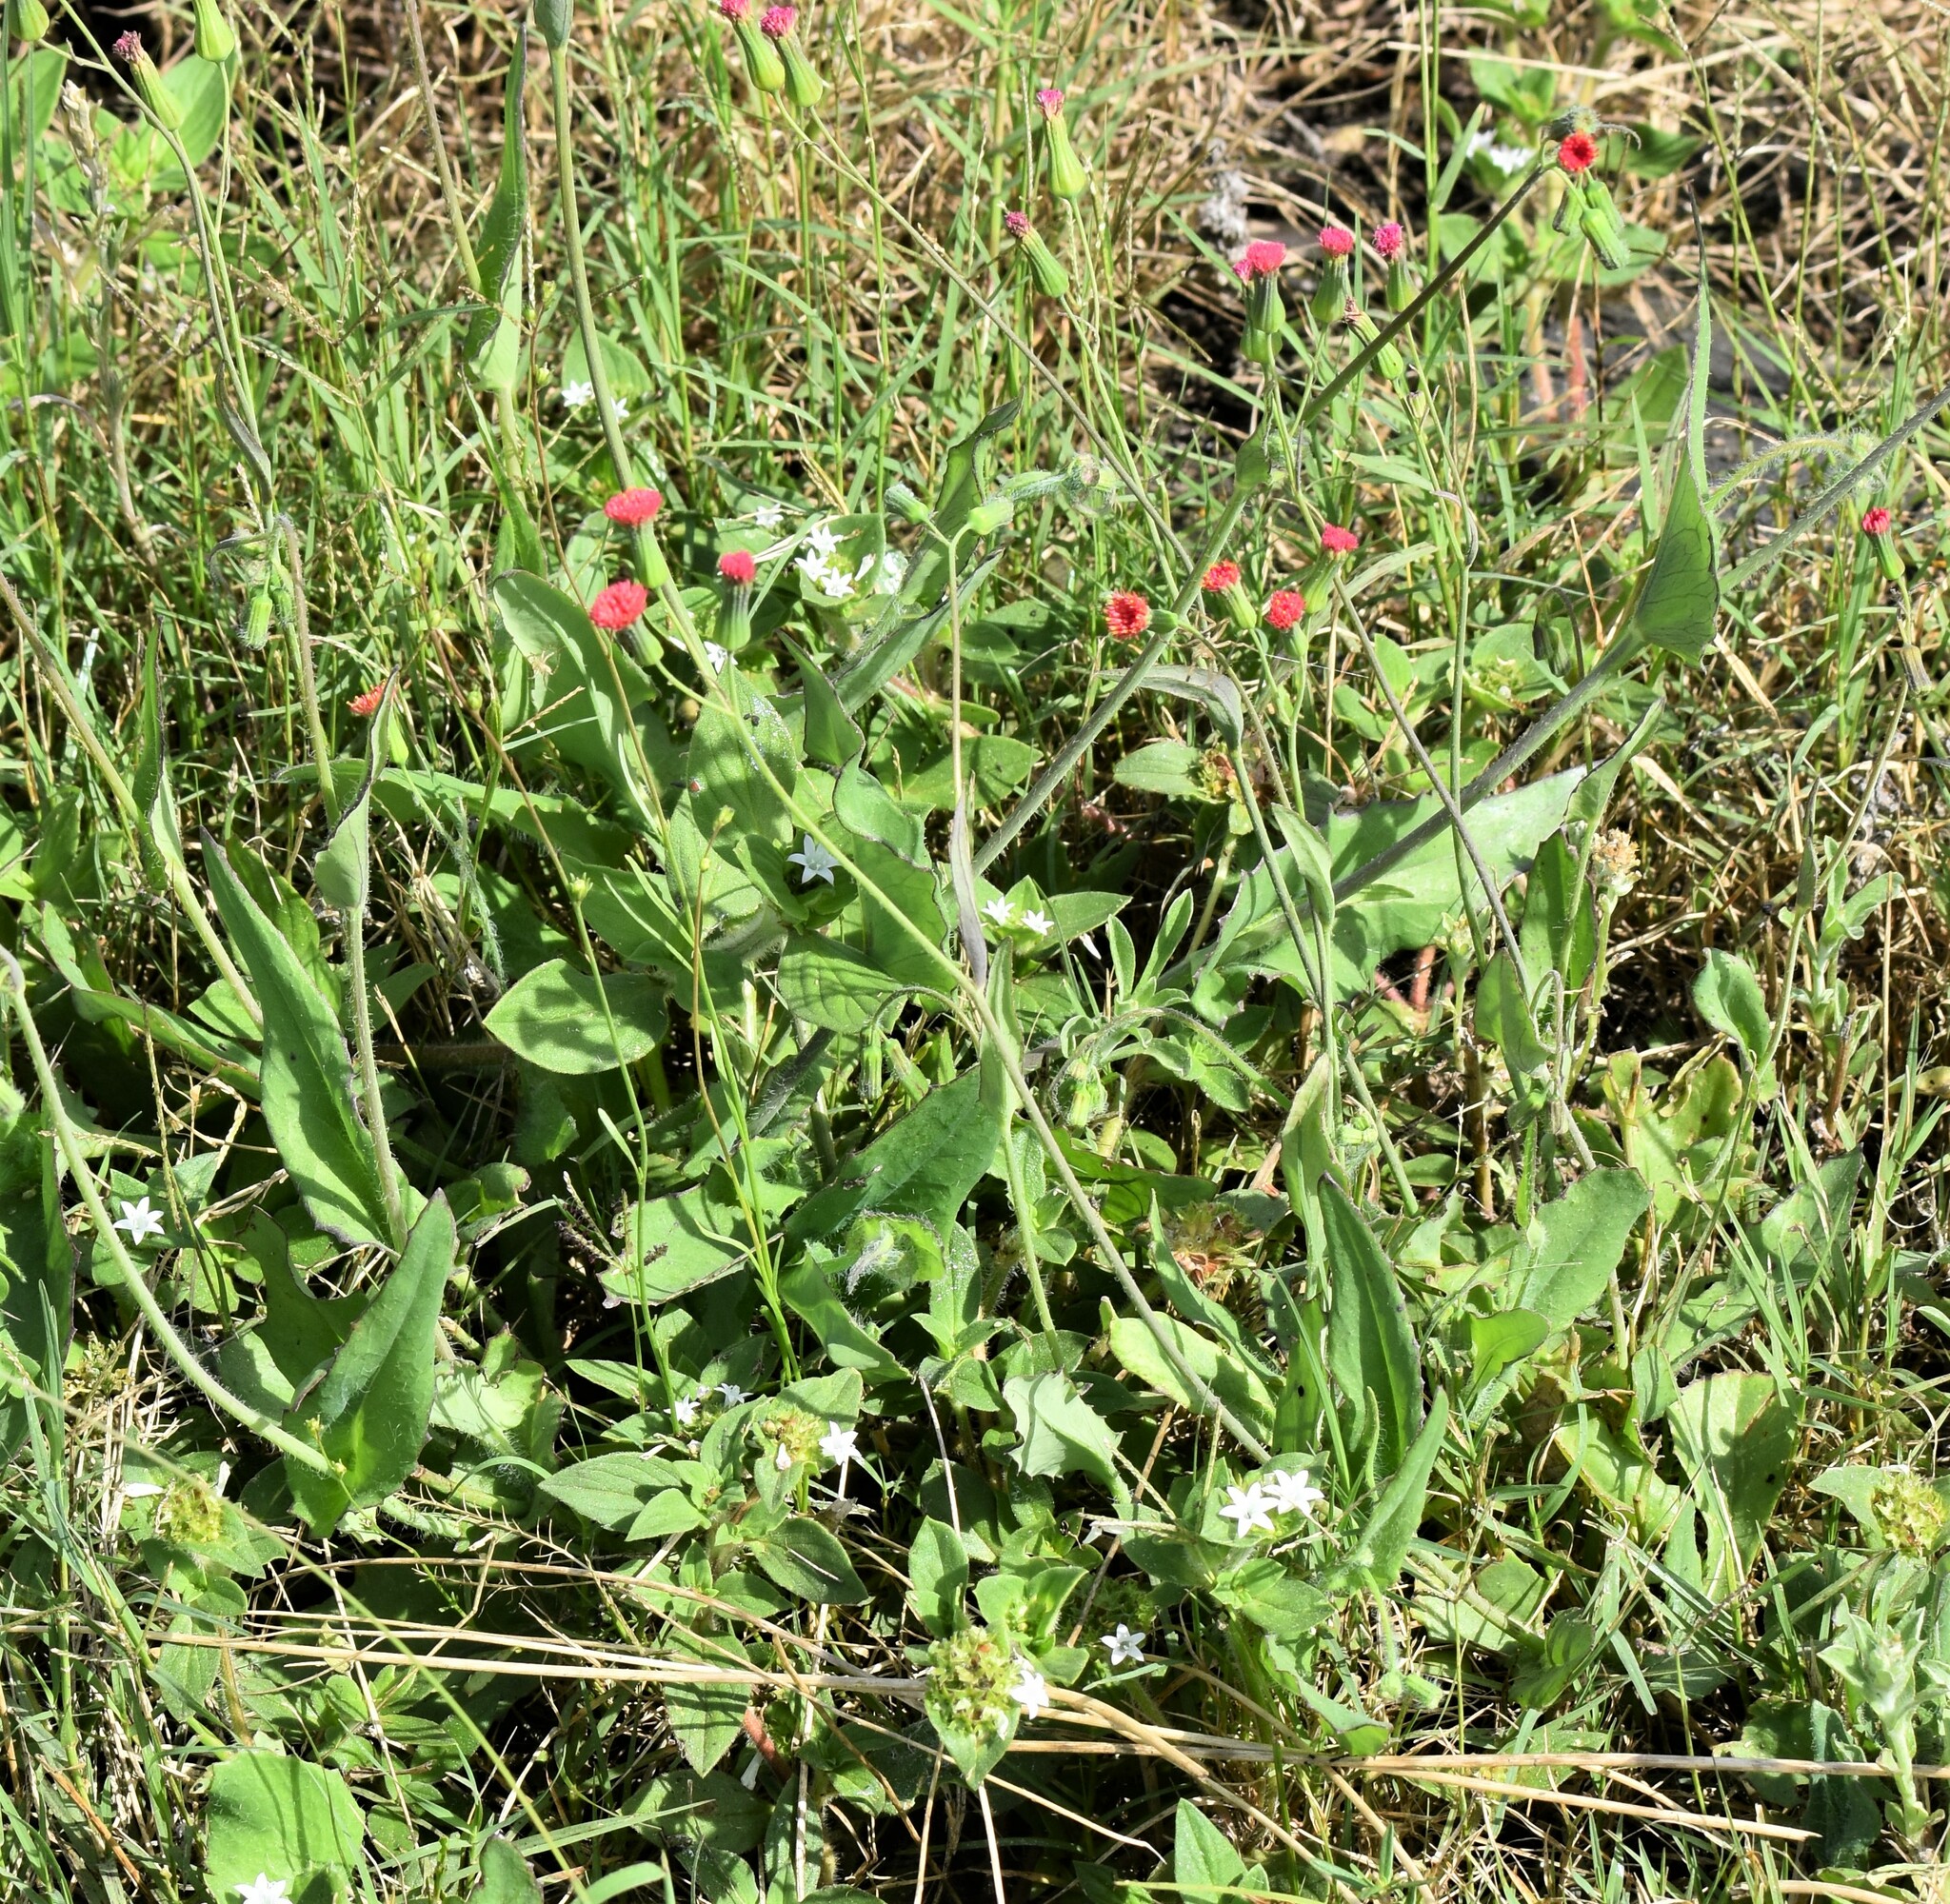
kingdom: Plantae
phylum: Tracheophyta
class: Magnoliopsida
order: Asterales
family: Asteraceae
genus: Emilia
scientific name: Emilia fosbergii
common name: Florida tasselflower
